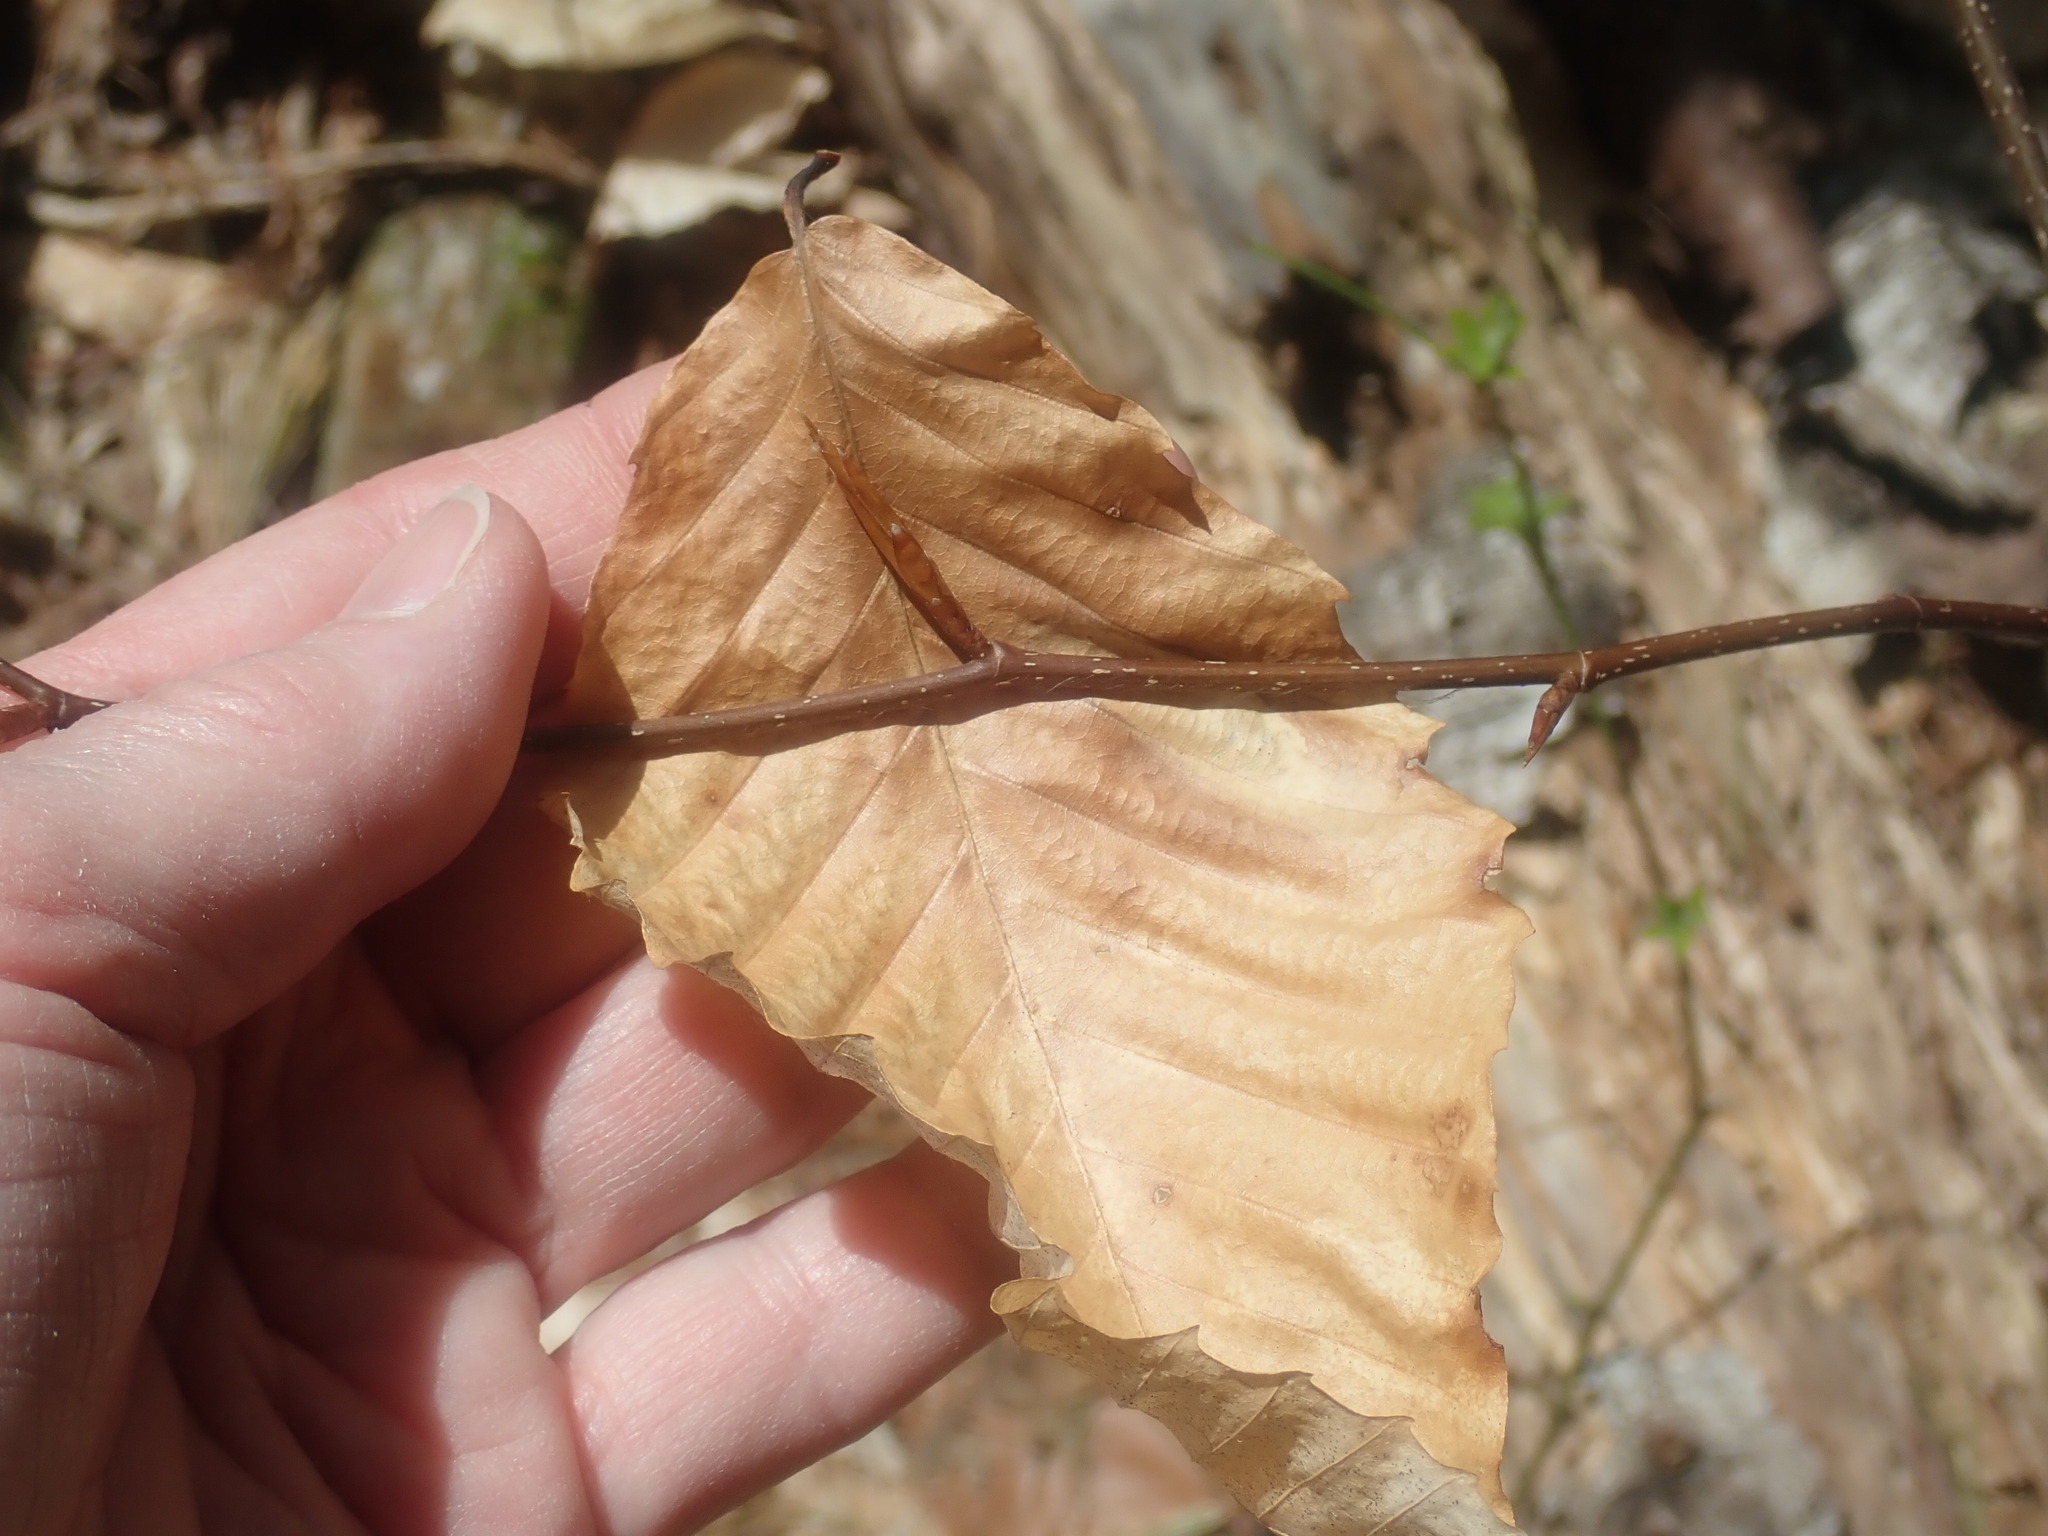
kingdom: Plantae
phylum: Tracheophyta
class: Magnoliopsida
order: Fagales
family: Fagaceae
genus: Fagus
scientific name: Fagus grandifolia
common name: American beech
